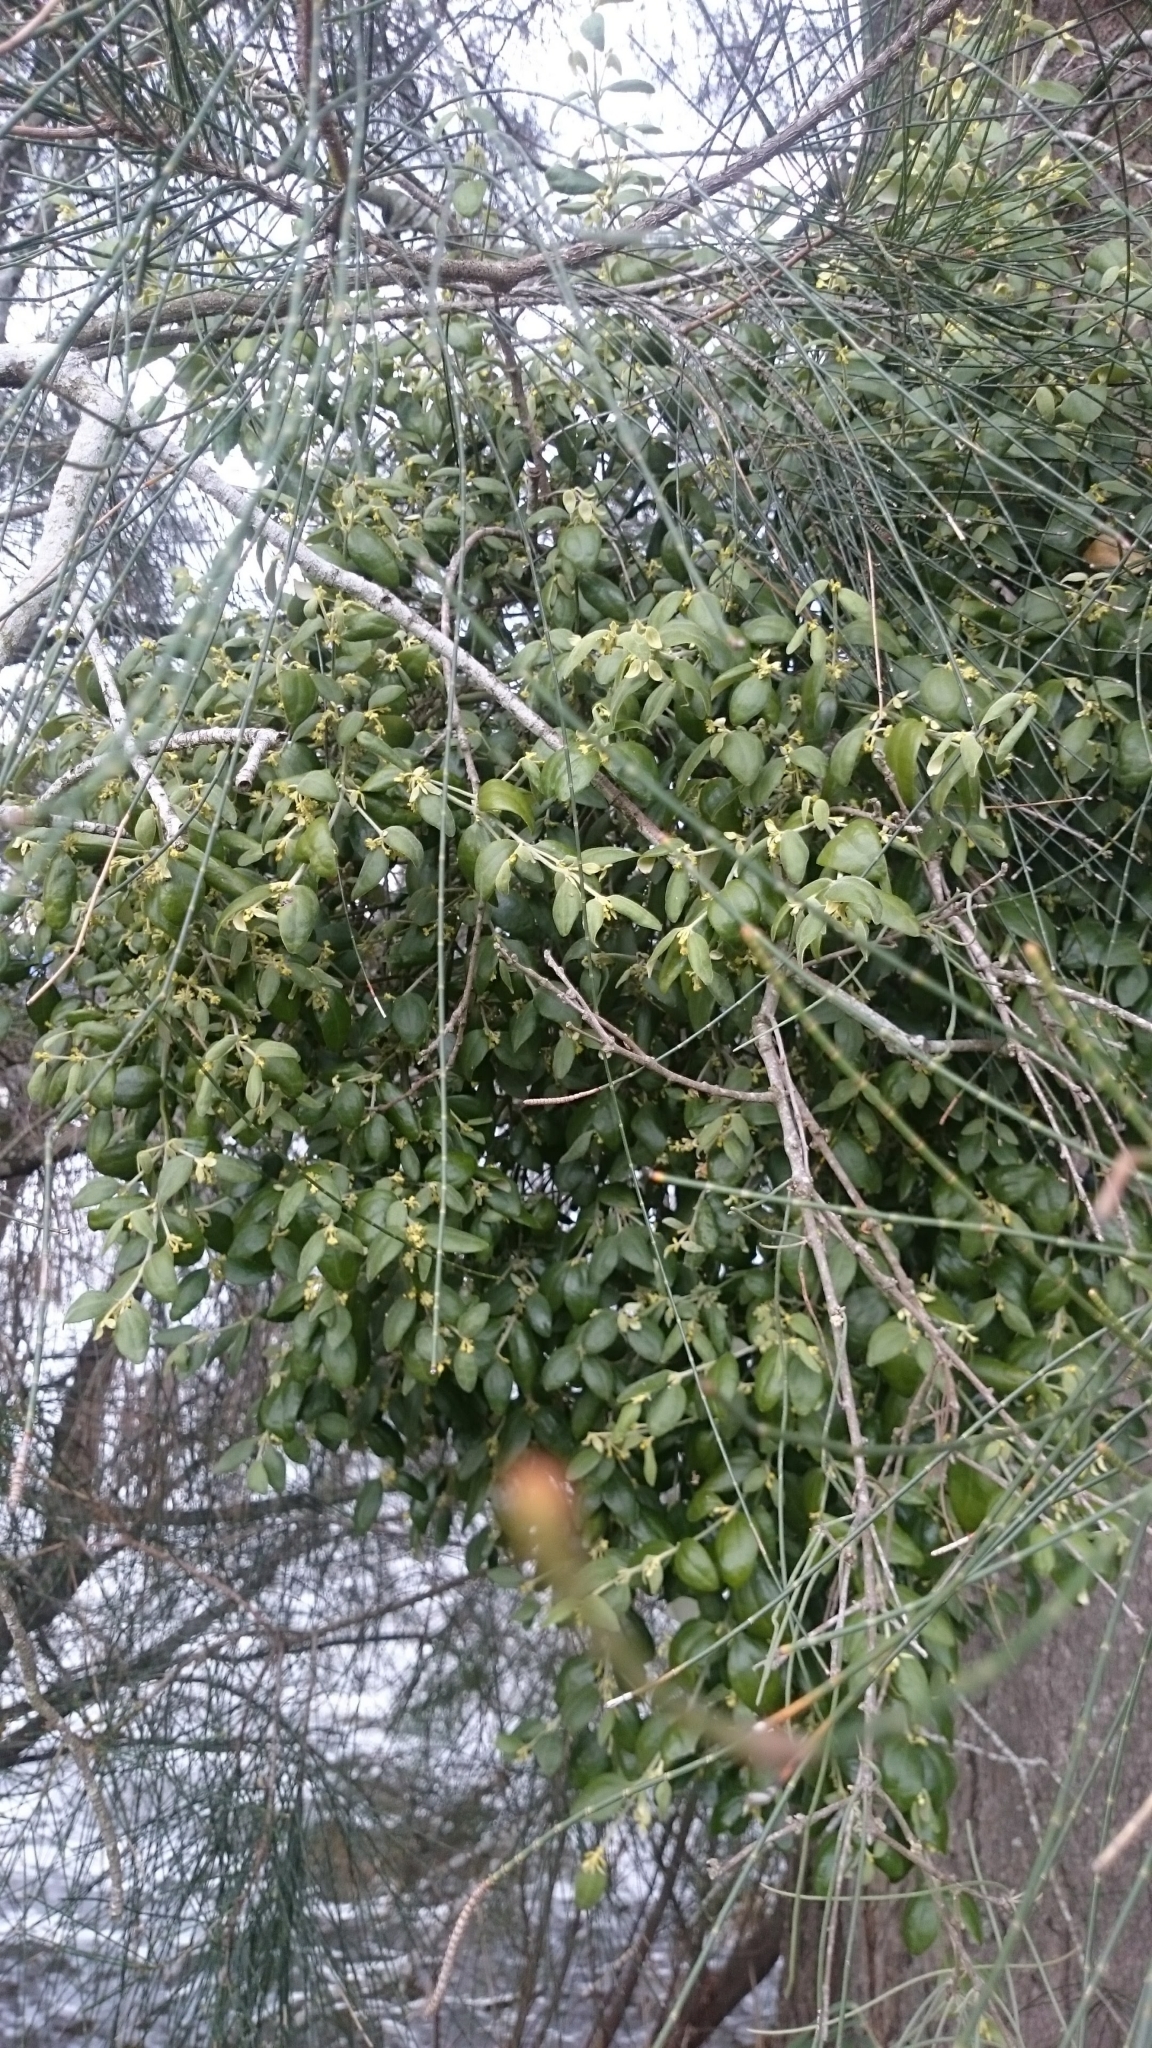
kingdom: Plantae
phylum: Tracheophyta
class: Magnoliopsida
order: Santalales
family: Viscaceae
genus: Notothixos
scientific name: Notothixos subaureus
